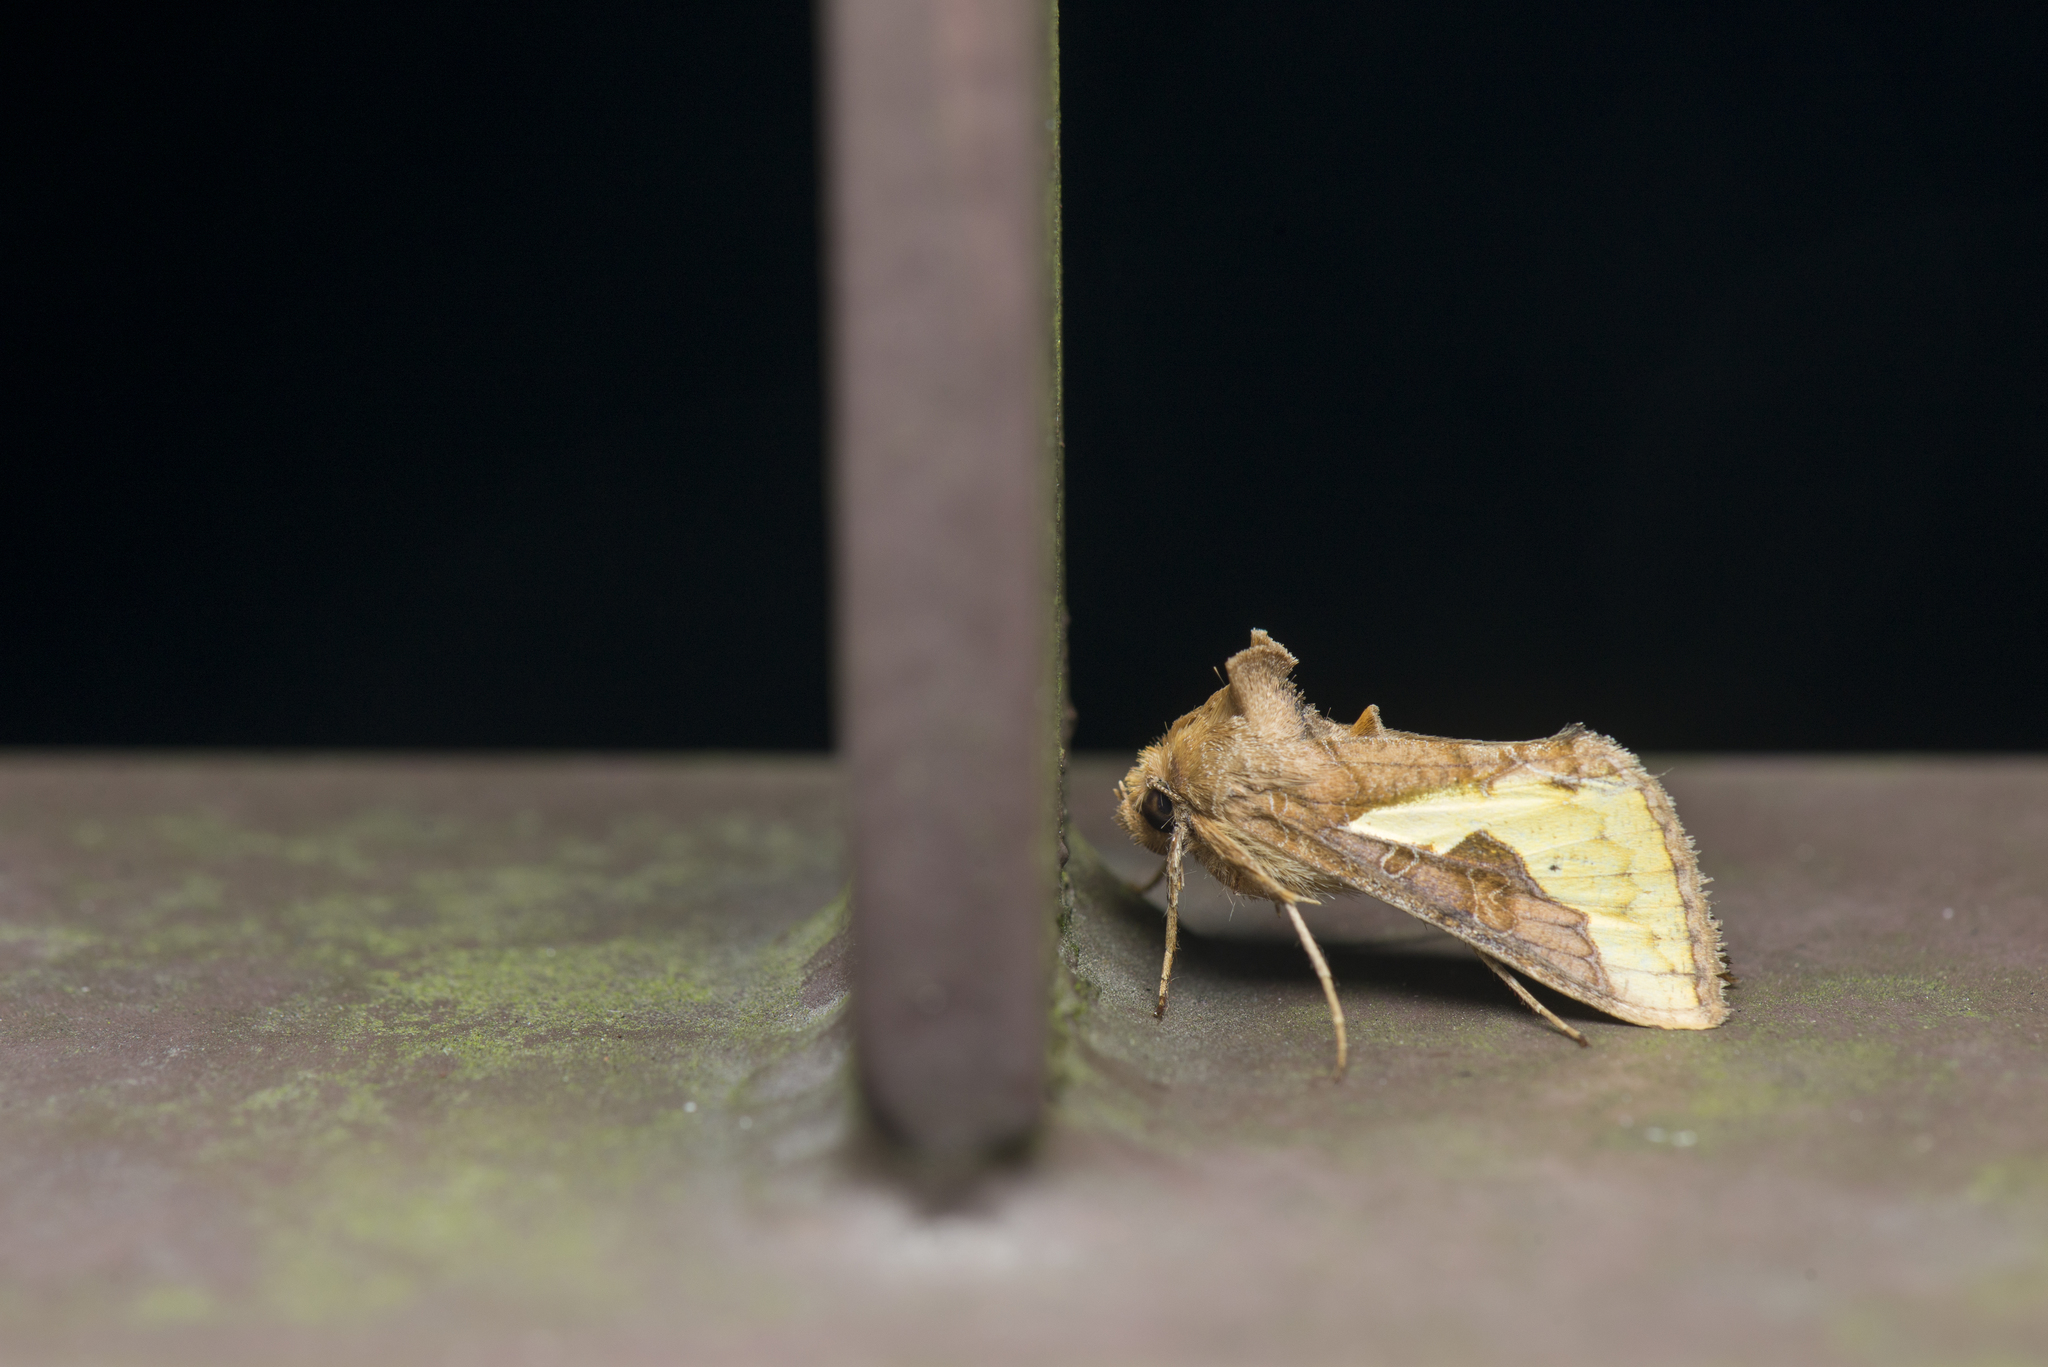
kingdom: Animalia
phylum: Arthropoda
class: Insecta
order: Lepidoptera
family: Noctuidae
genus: Thysanoplusia
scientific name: Thysanoplusia orichalcea
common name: Slender burnished brass, golden plusia
